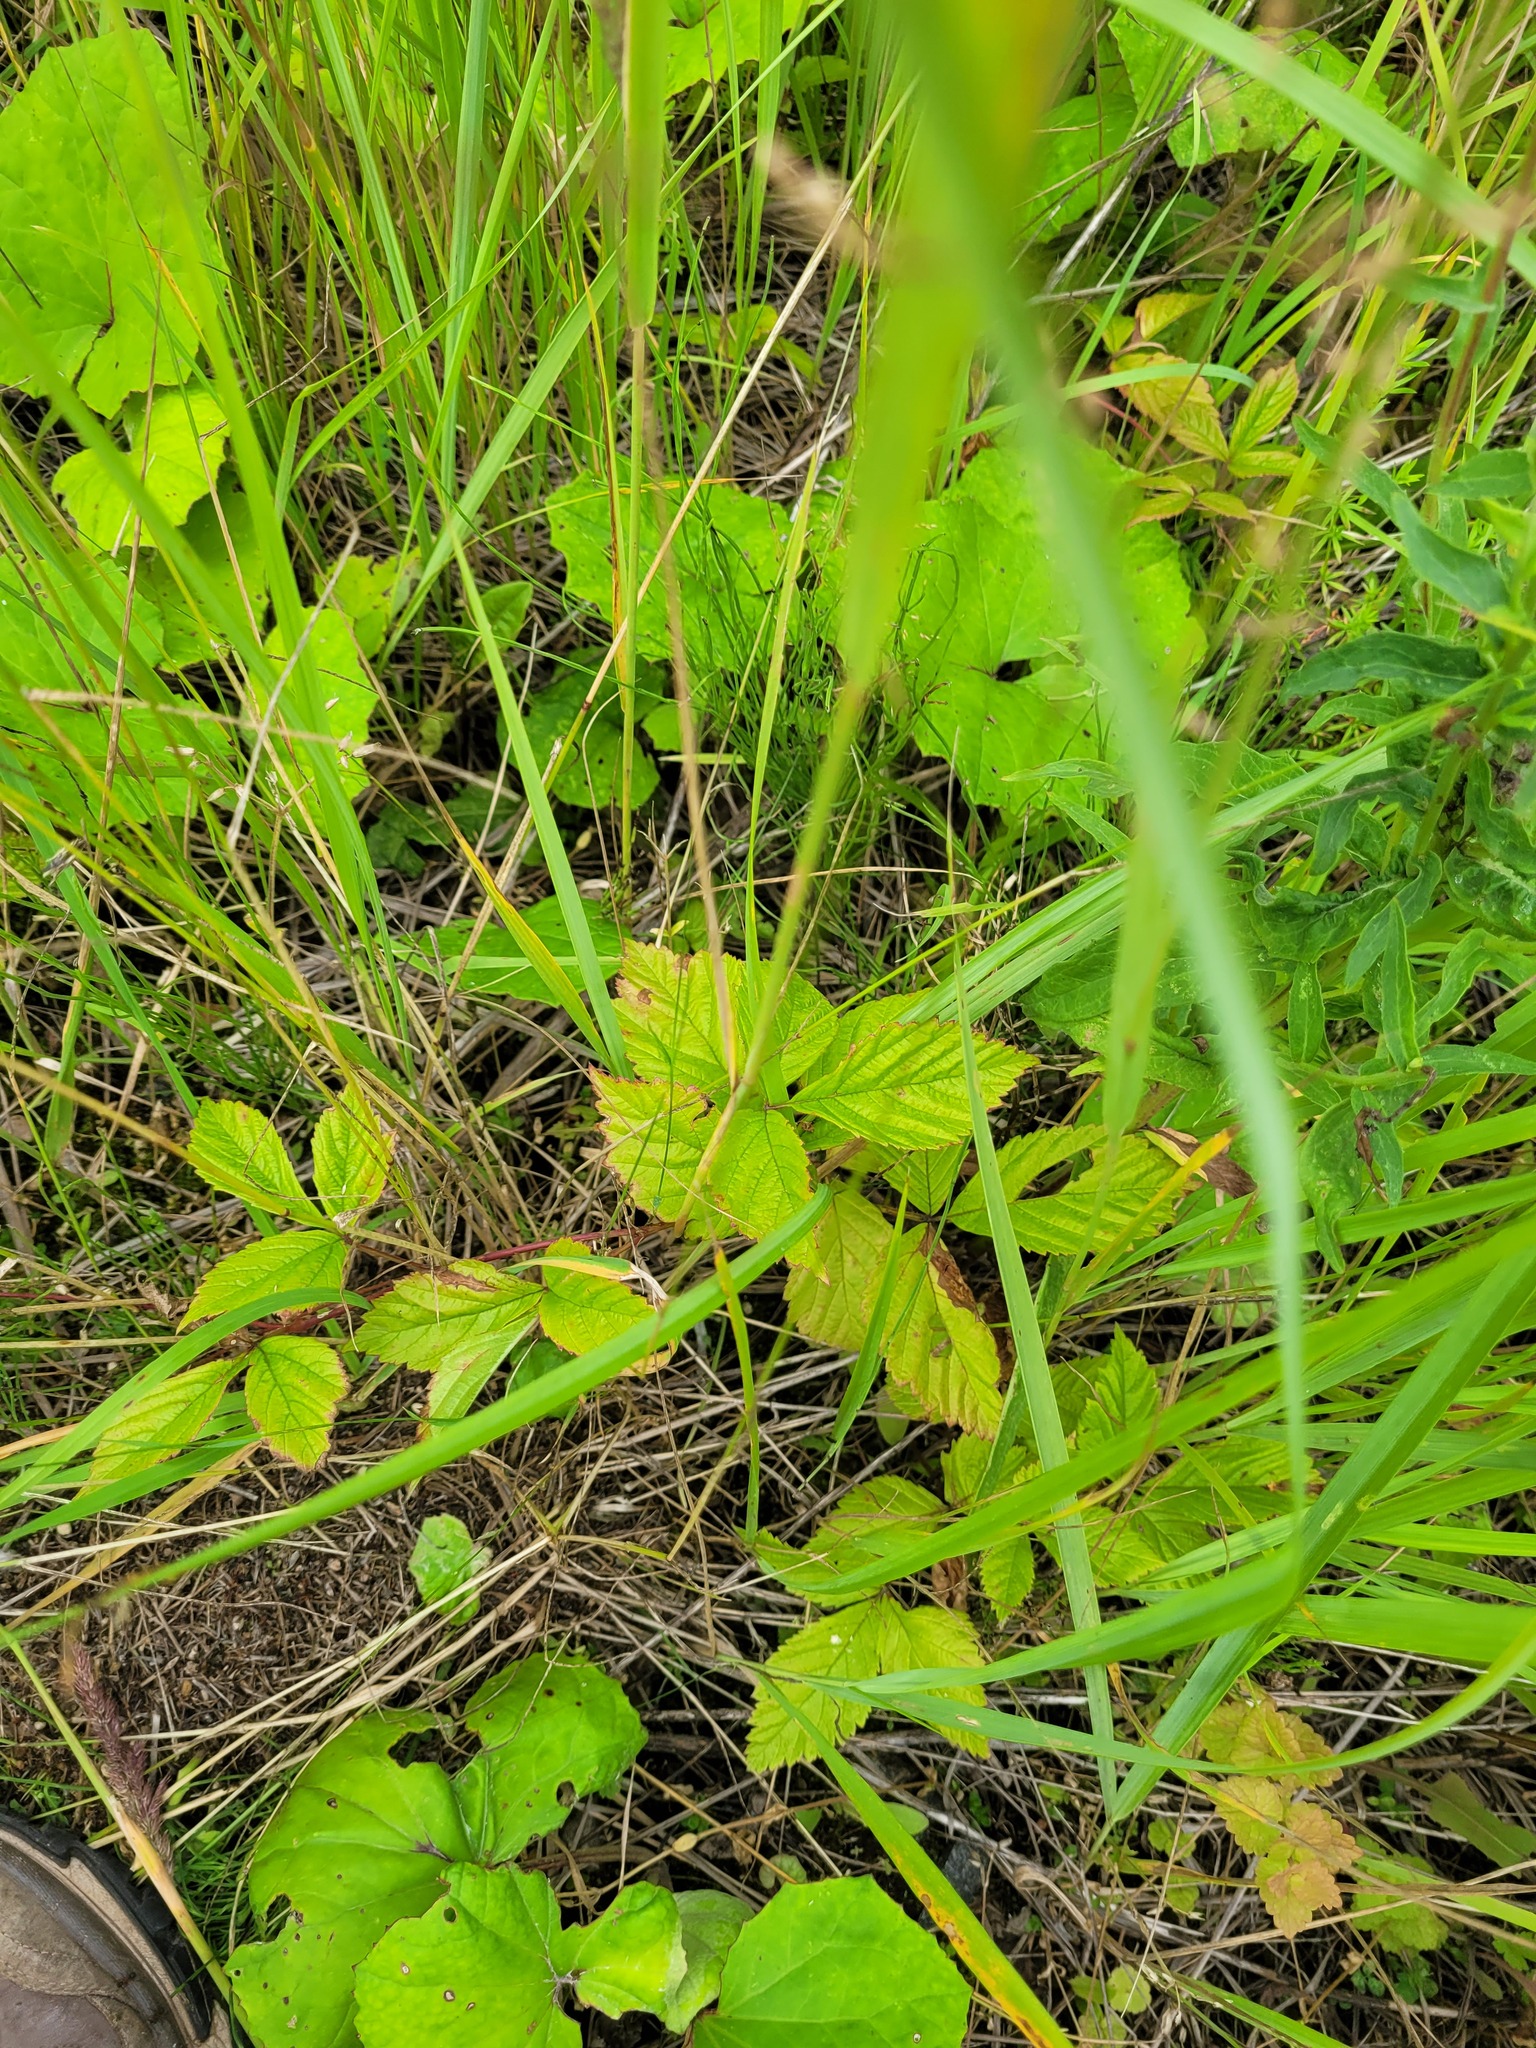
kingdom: Plantae
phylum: Tracheophyta
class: Magnoliopsida
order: Rosales
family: Rosaceae
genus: Rubus
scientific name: Rubus saxatilis
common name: Stone bramble
